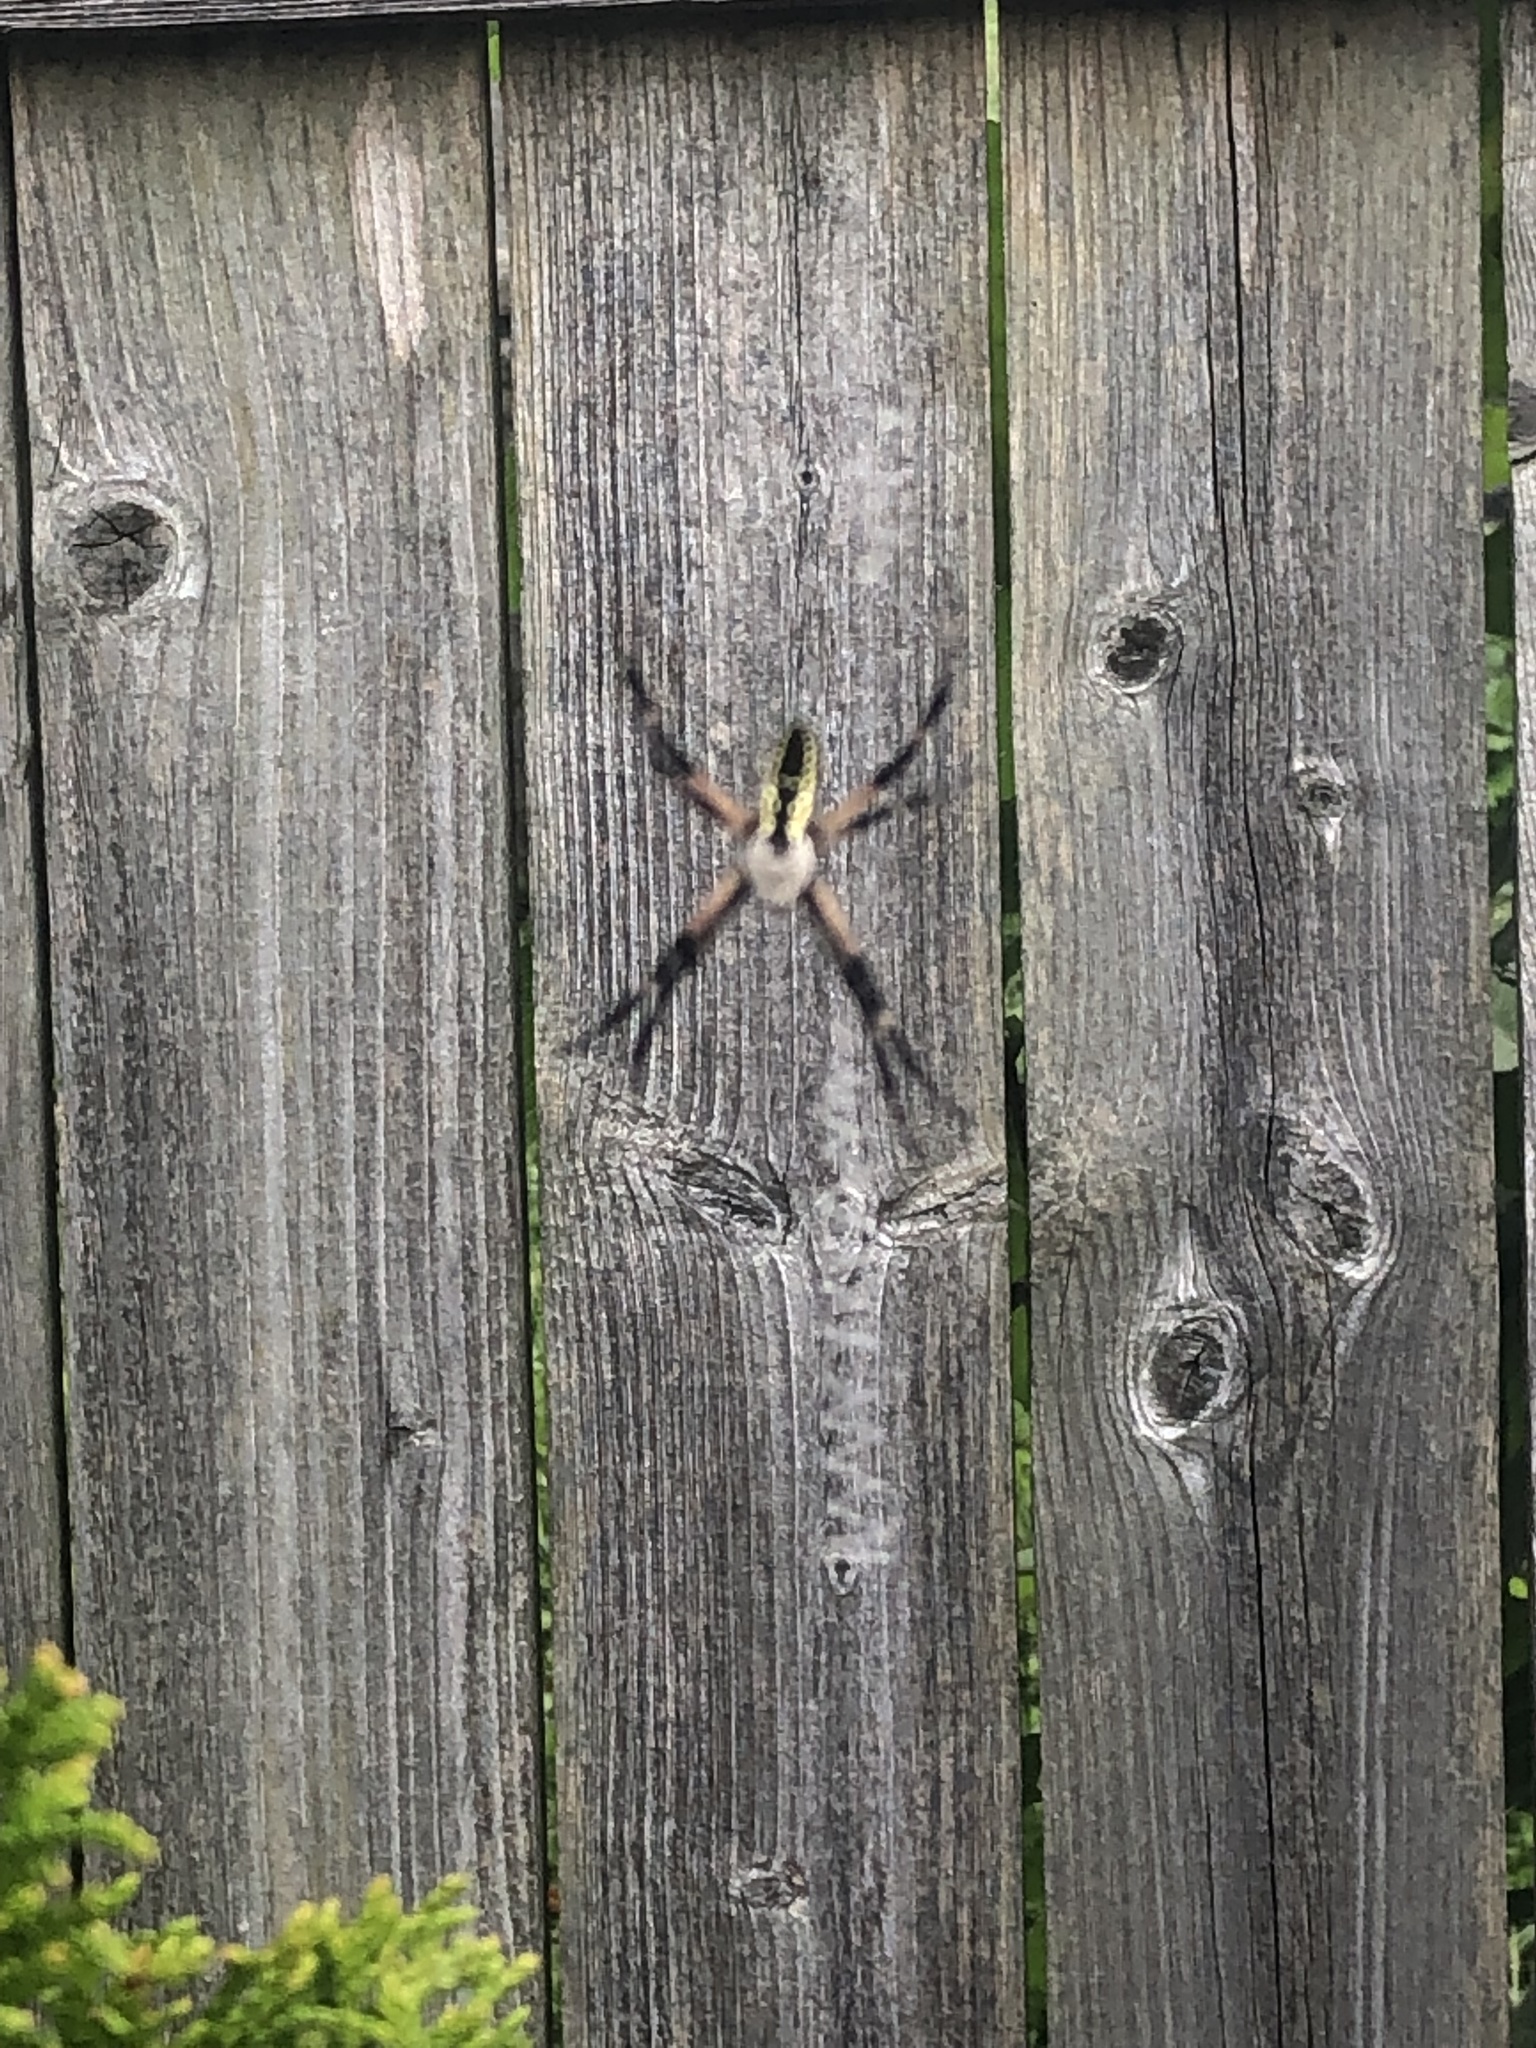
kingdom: Animalia
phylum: Arthropoda
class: Arachnida
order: Araneae
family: Araneidae
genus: Argiope
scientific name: Argiope aurantia
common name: Orb weavers
